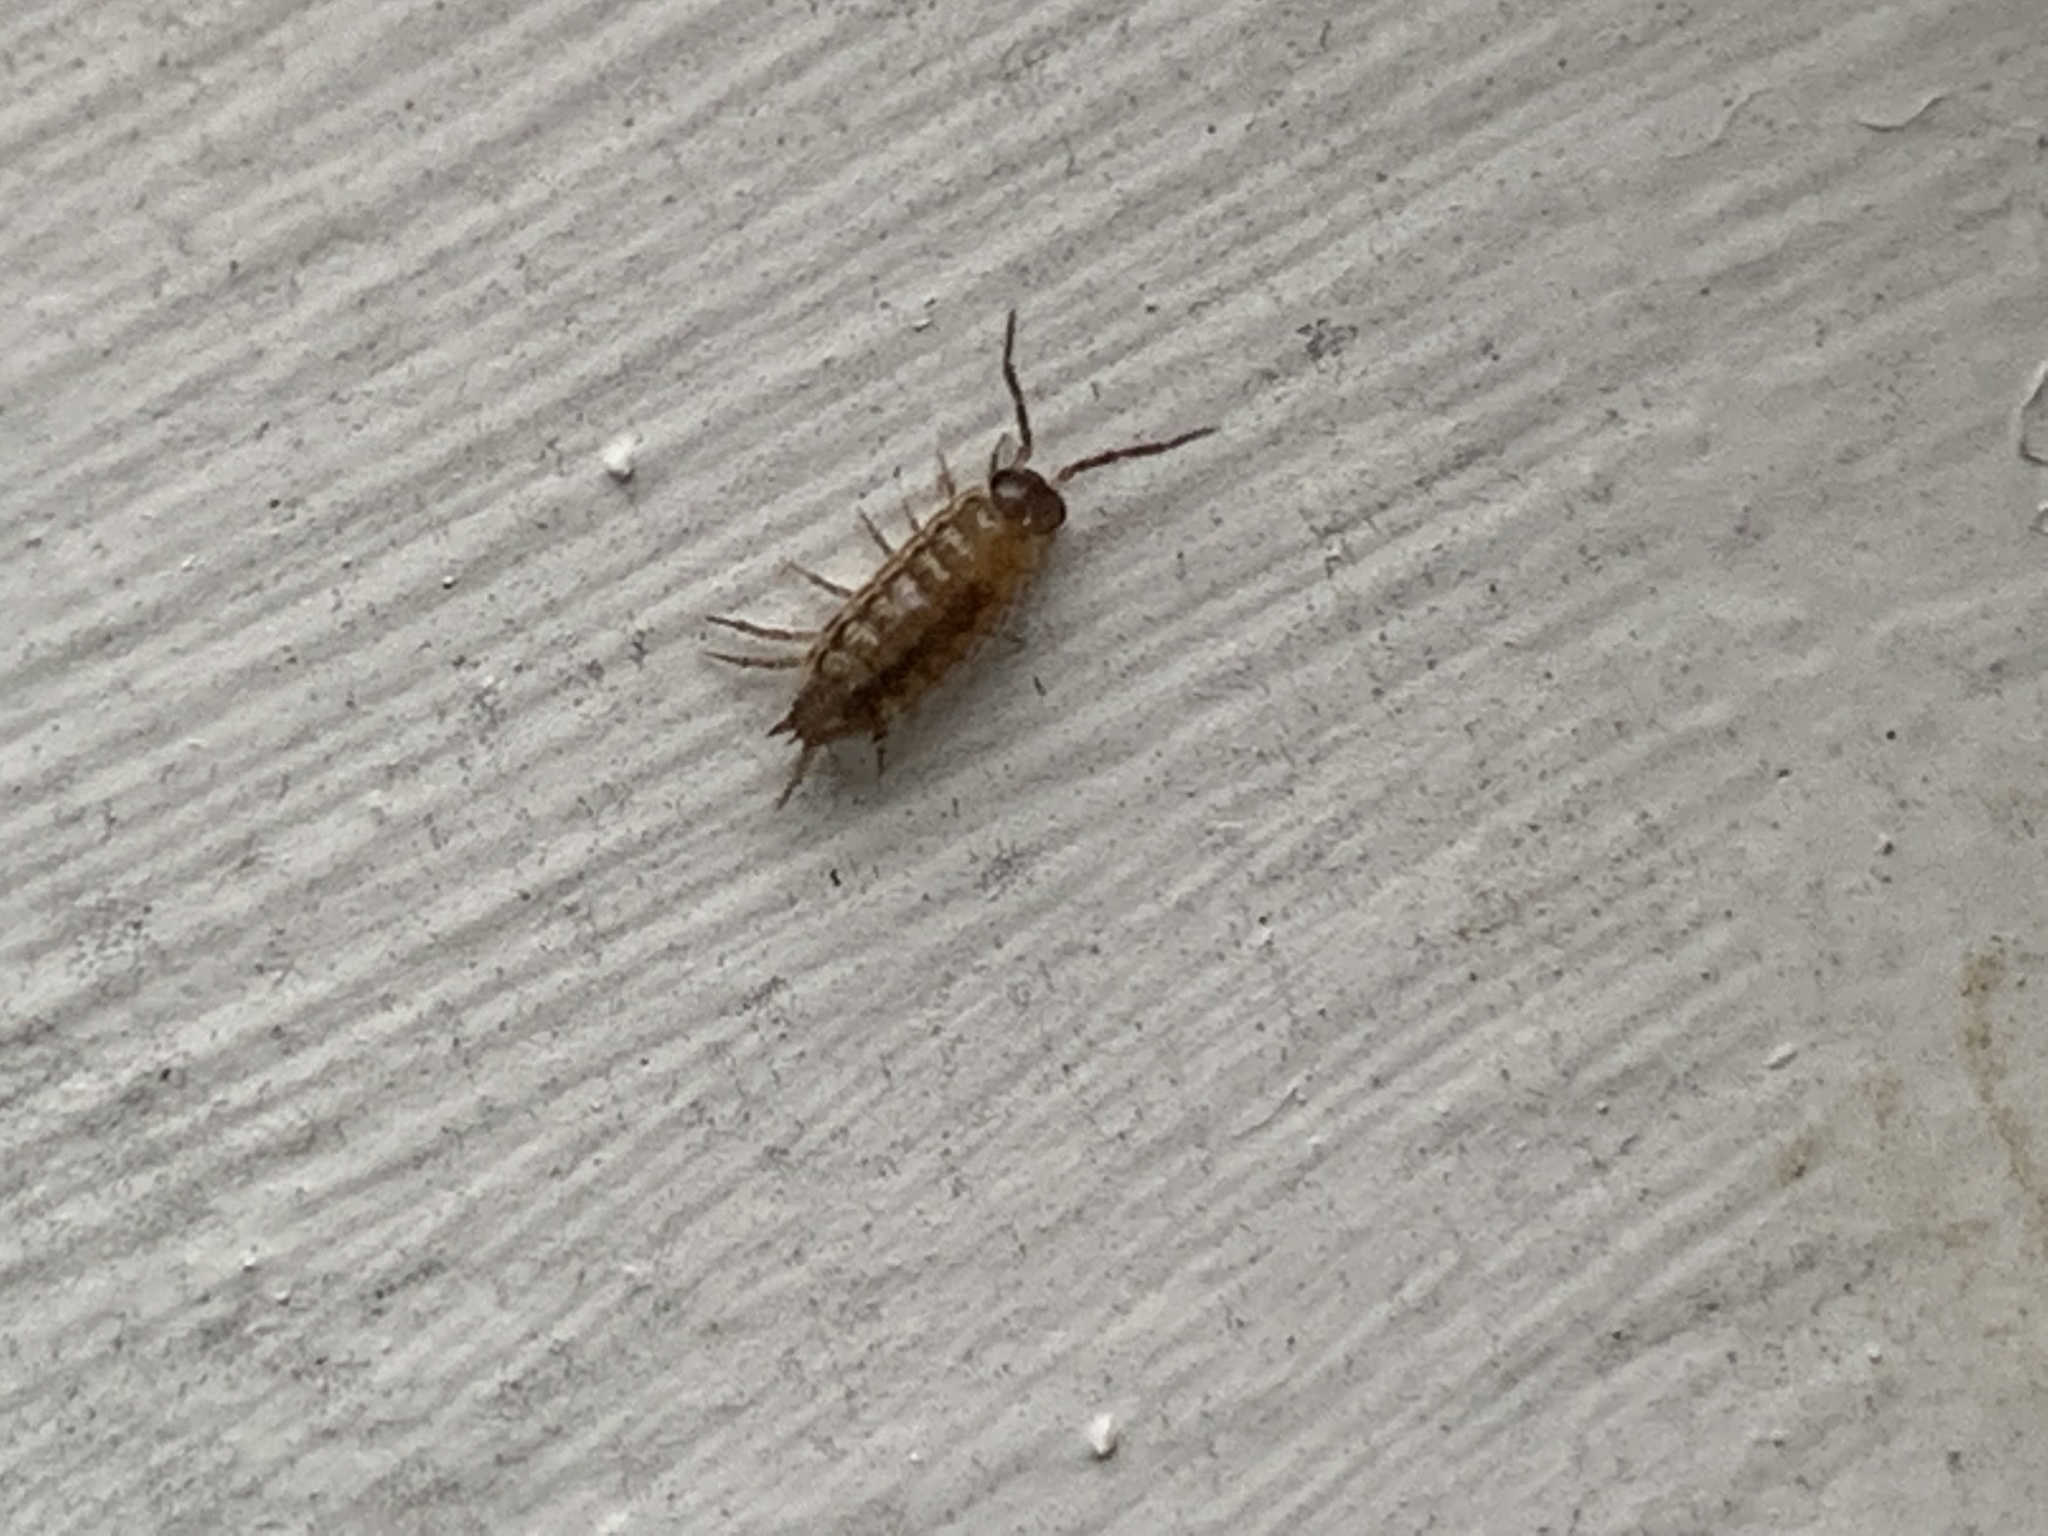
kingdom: Animalia
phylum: Arthropoda
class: Malacostraca
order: Isopoda
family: Philosciidae
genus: Philoscia
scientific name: Philoscia muscorum
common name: Common striped woodlouse
